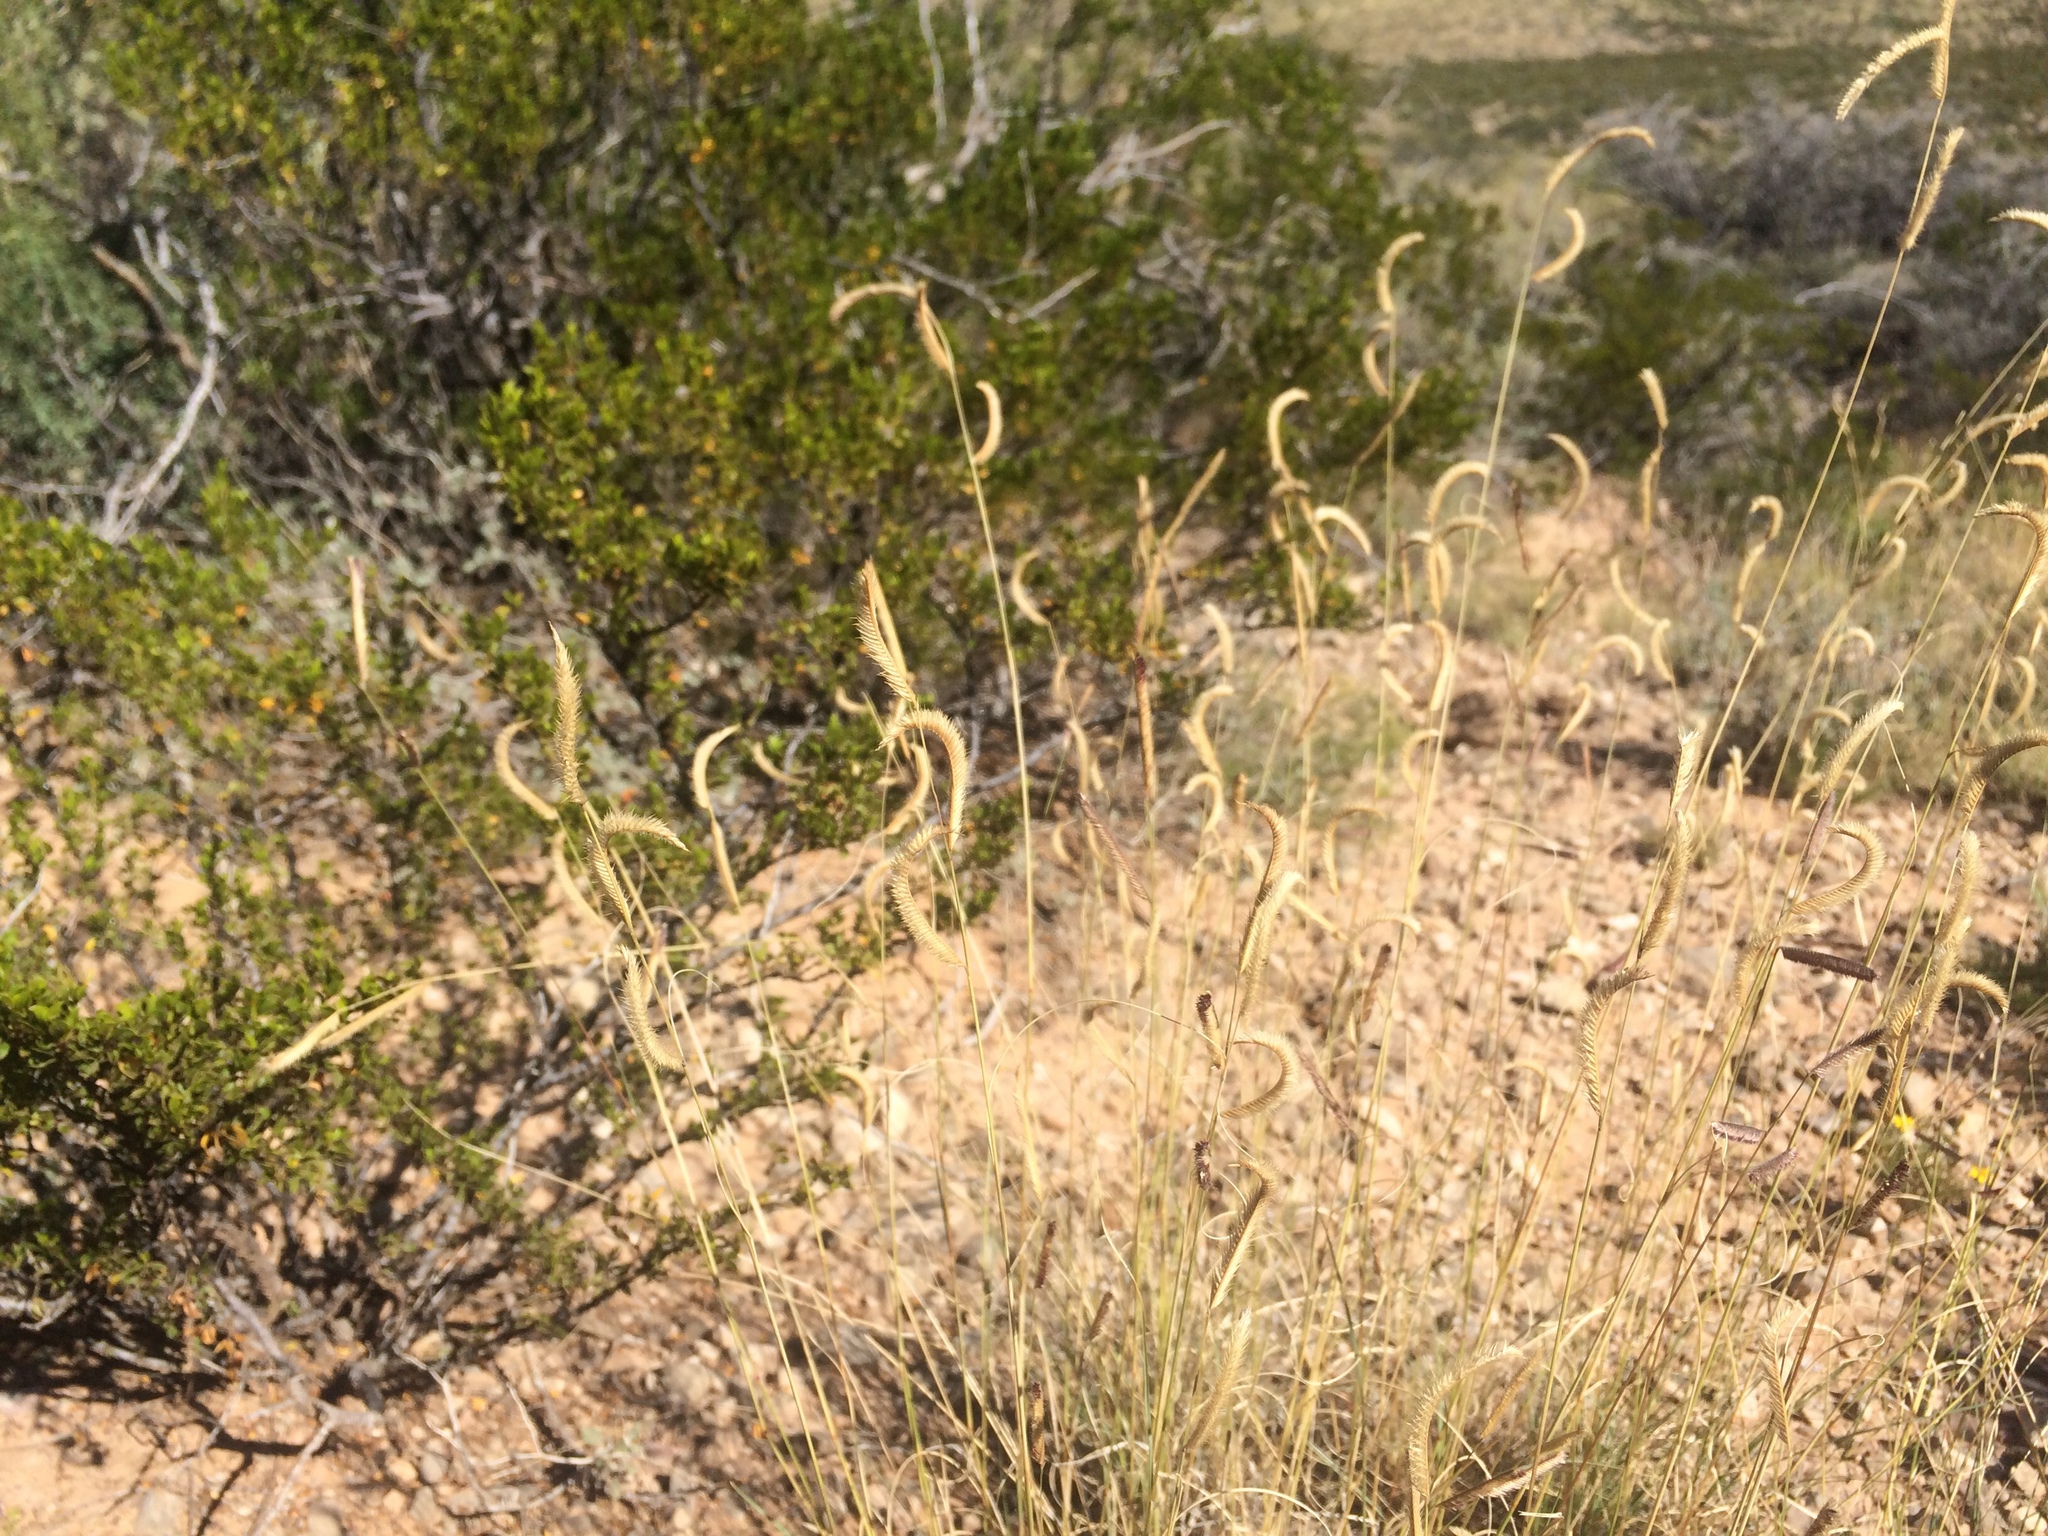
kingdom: Plantae
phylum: Tracheophyta
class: Liliopsida
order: Poales
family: Poaceae
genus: Bouteloua
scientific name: Bouteloua gracilis
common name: Blue grama
